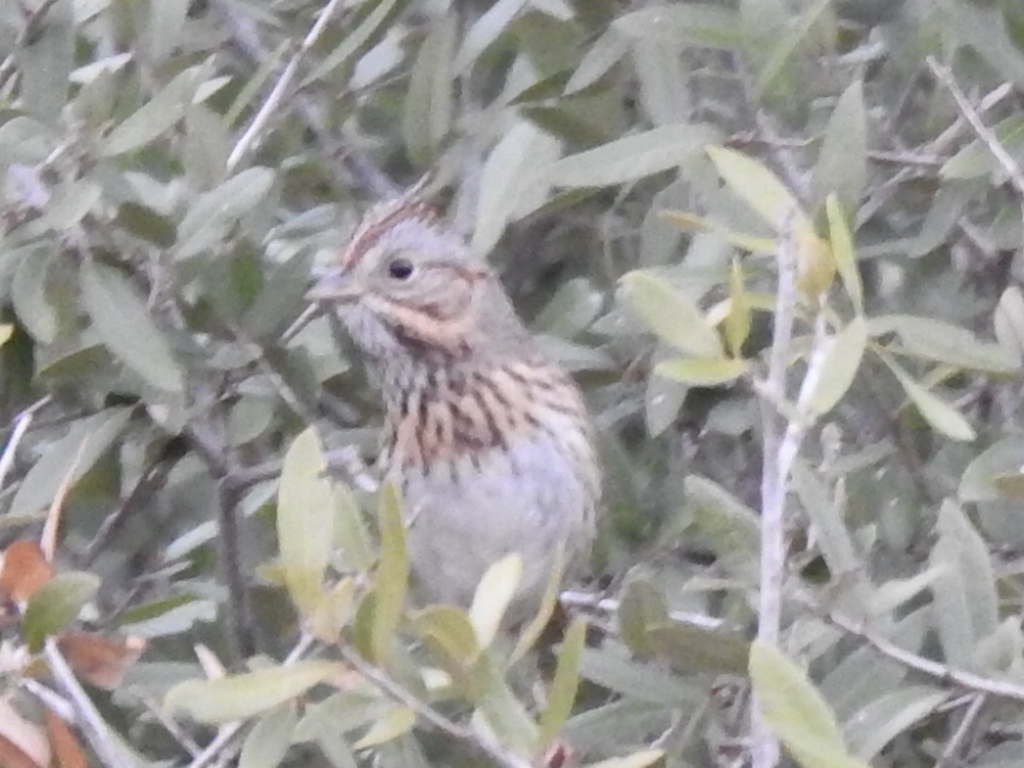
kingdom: Animalia
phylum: Chordata
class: Aves
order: Passeriformes
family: Passerellidae
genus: Melospiza
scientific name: Melospiza lincolnii
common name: Lincoln's sparrow
